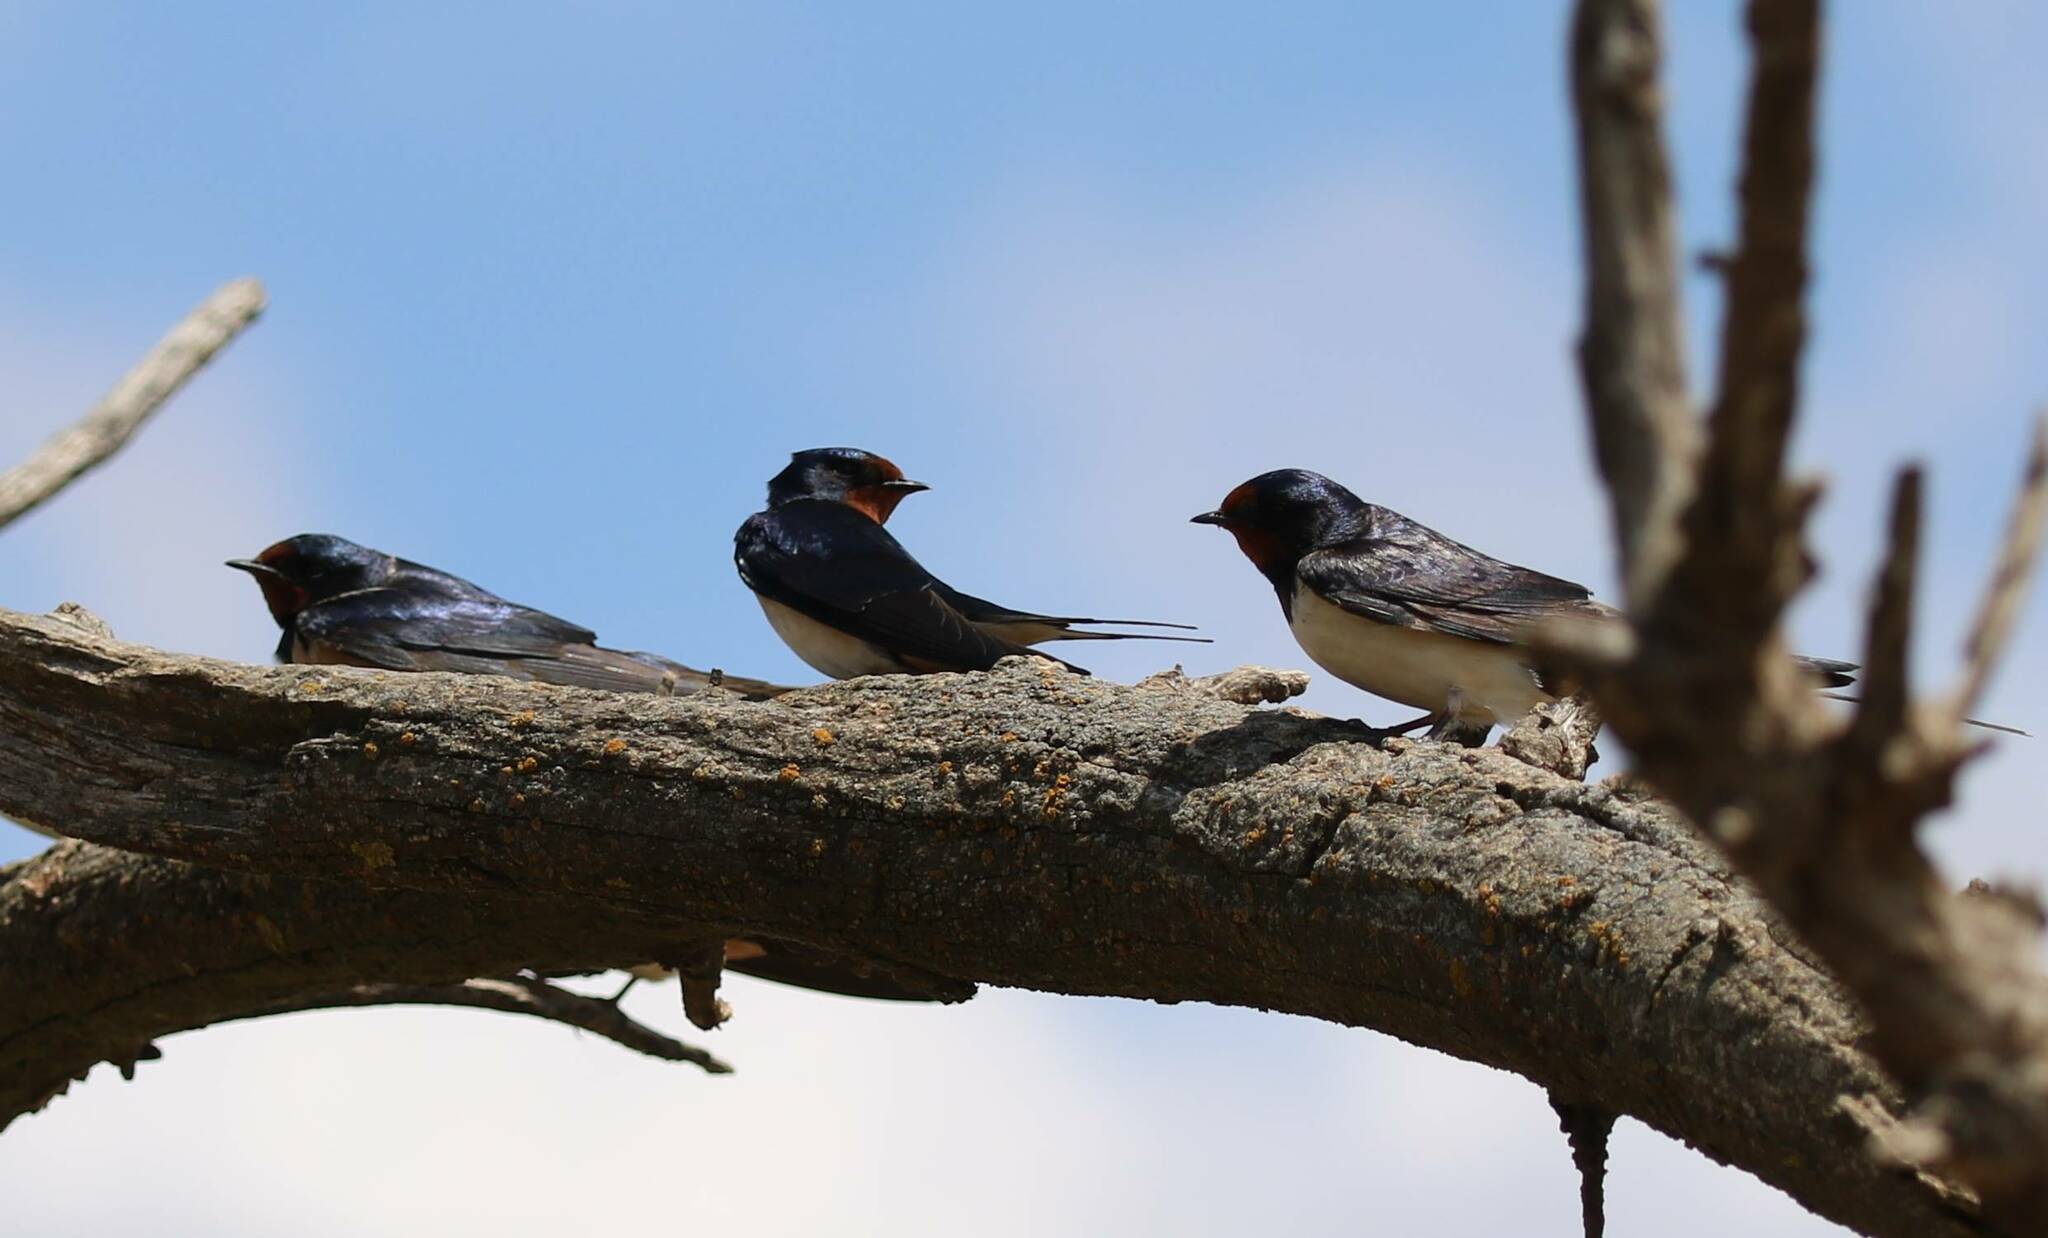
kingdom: Animalia
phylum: Chordata
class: Aves
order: Passeriformes
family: Hirundinidae
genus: Hirundo
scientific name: Hirundo rustica
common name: Barn swallow
